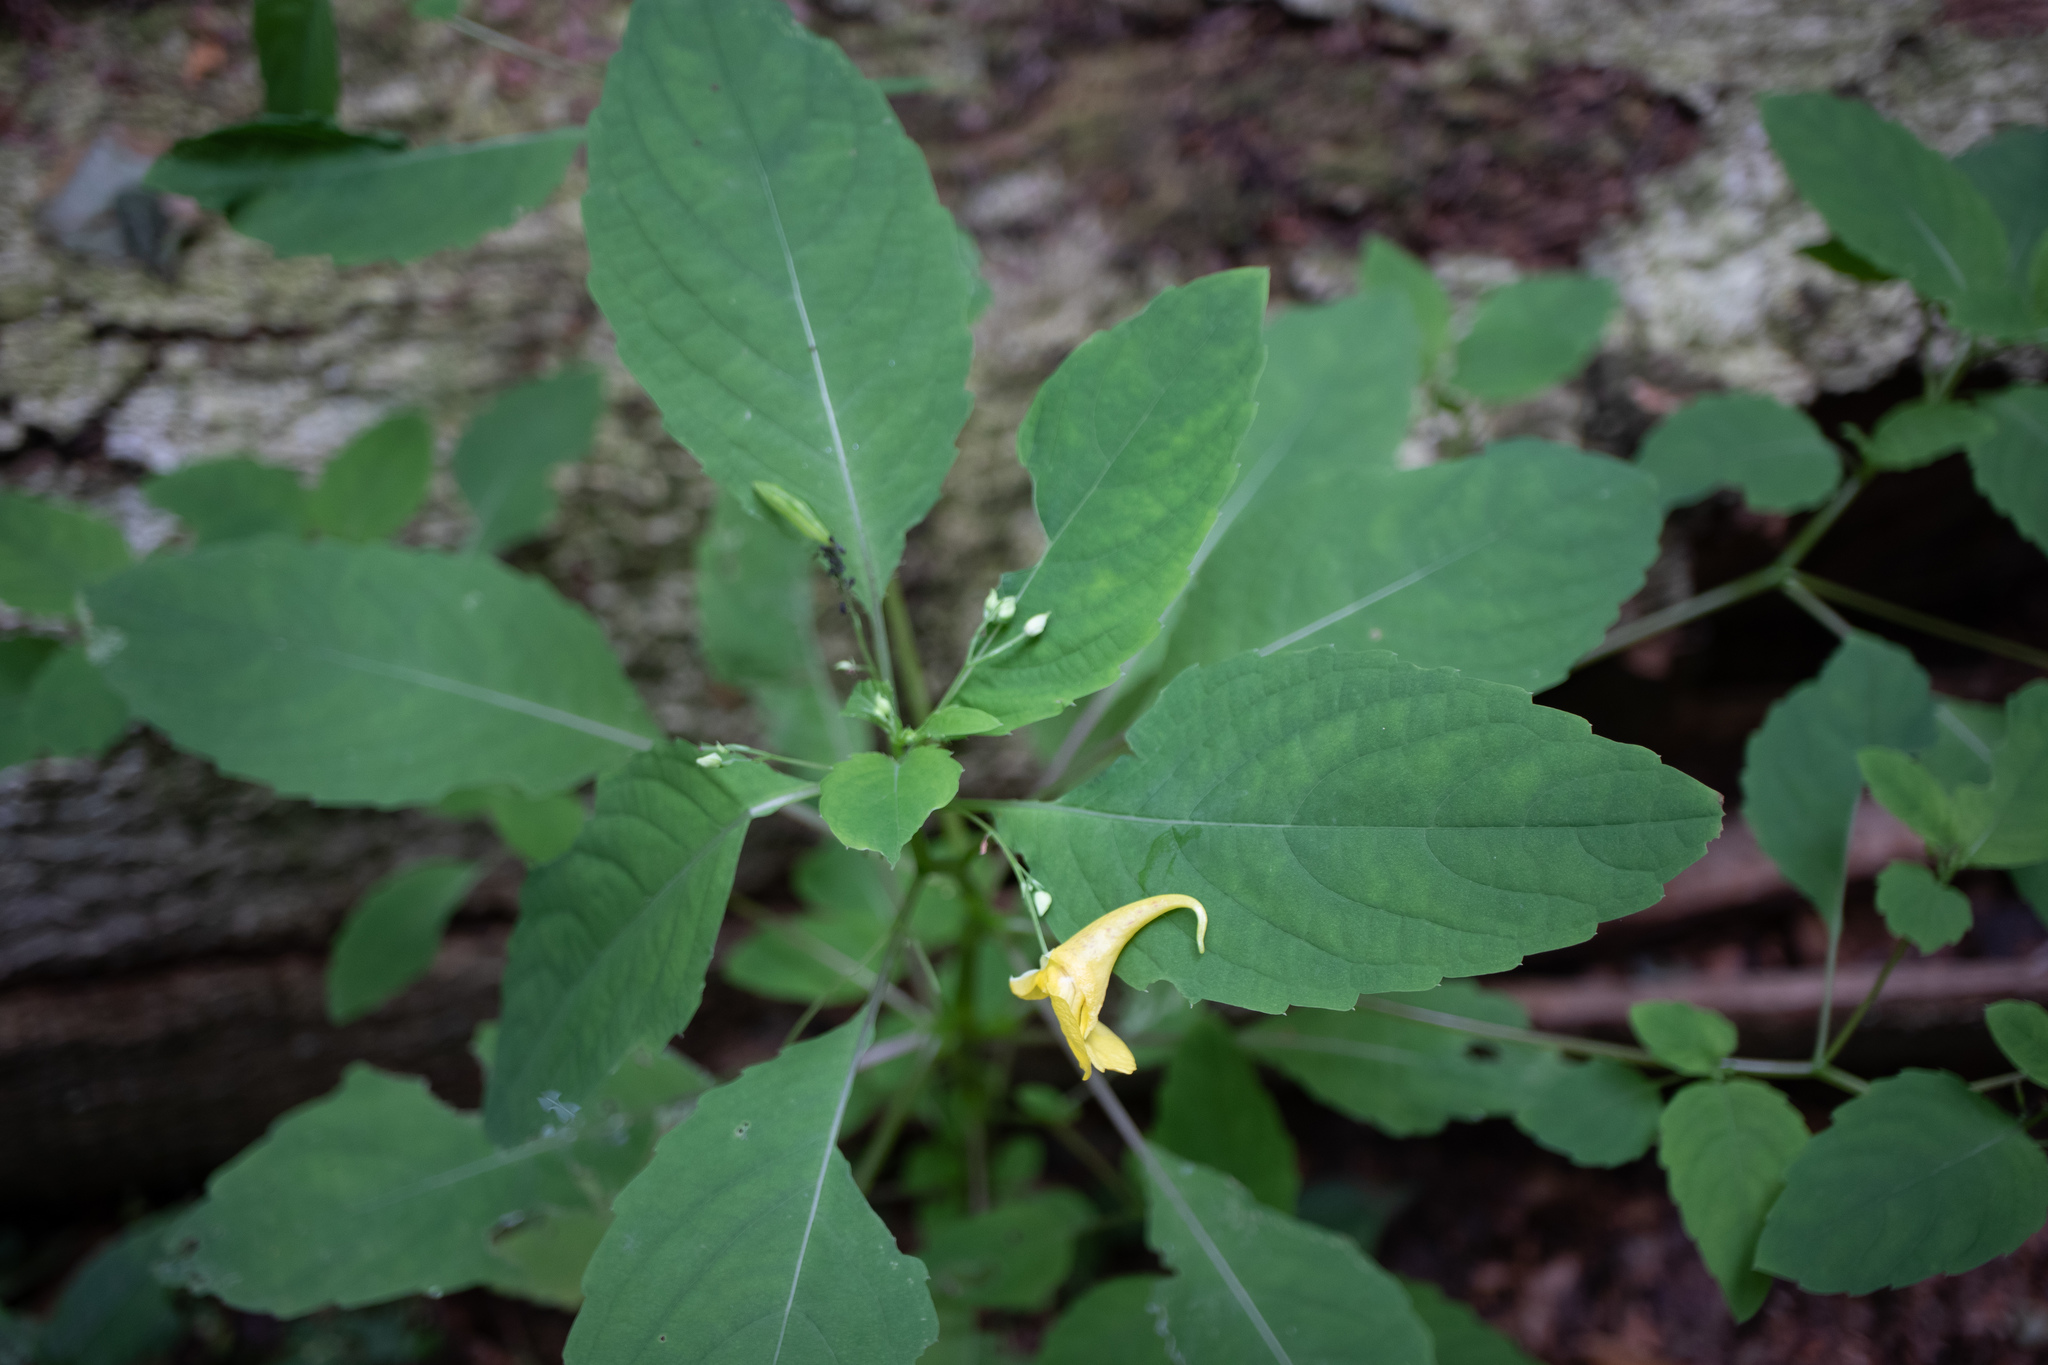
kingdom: Plantae
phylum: Tracheophyta
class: Magnoliopsida
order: Ericales
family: Balsaminaceae
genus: Impatiens
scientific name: Impatiens noli-tangere
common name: Touch-me-not balsam
